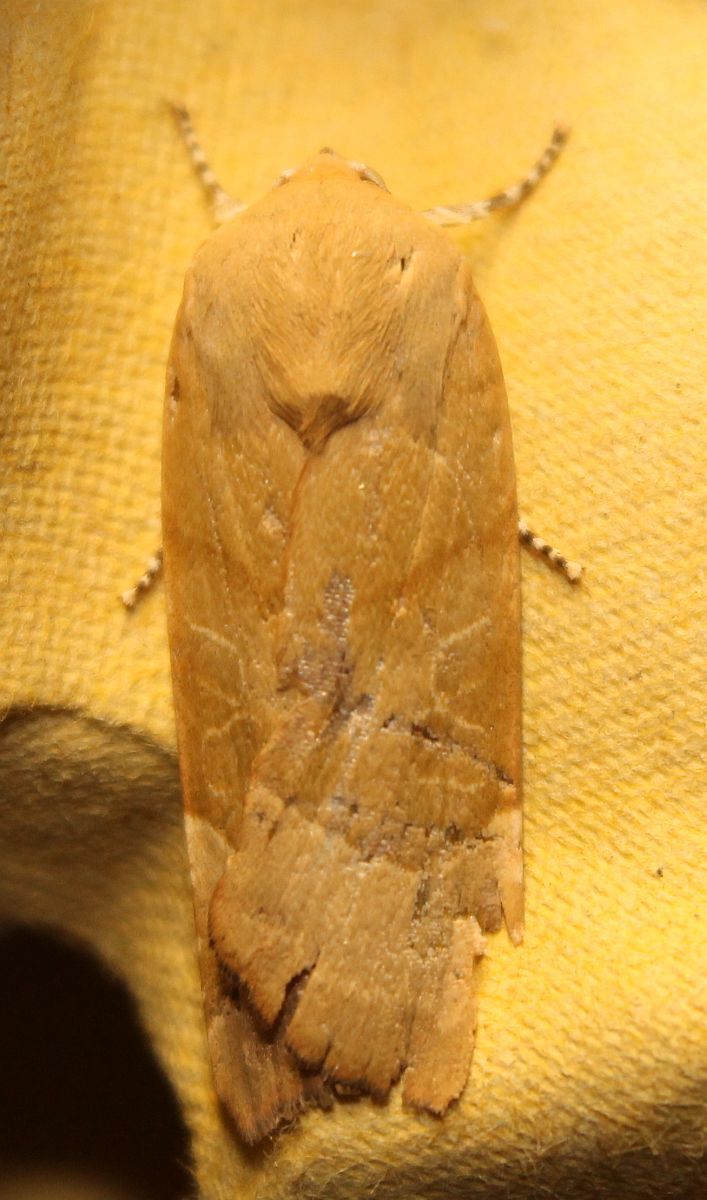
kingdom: Animalia
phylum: Arthropoda
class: Insecta
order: Lepidoptera
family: Noctuidae
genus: Noctua
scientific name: Noctua fimbriata
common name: Broad-bordered yellow underwing
